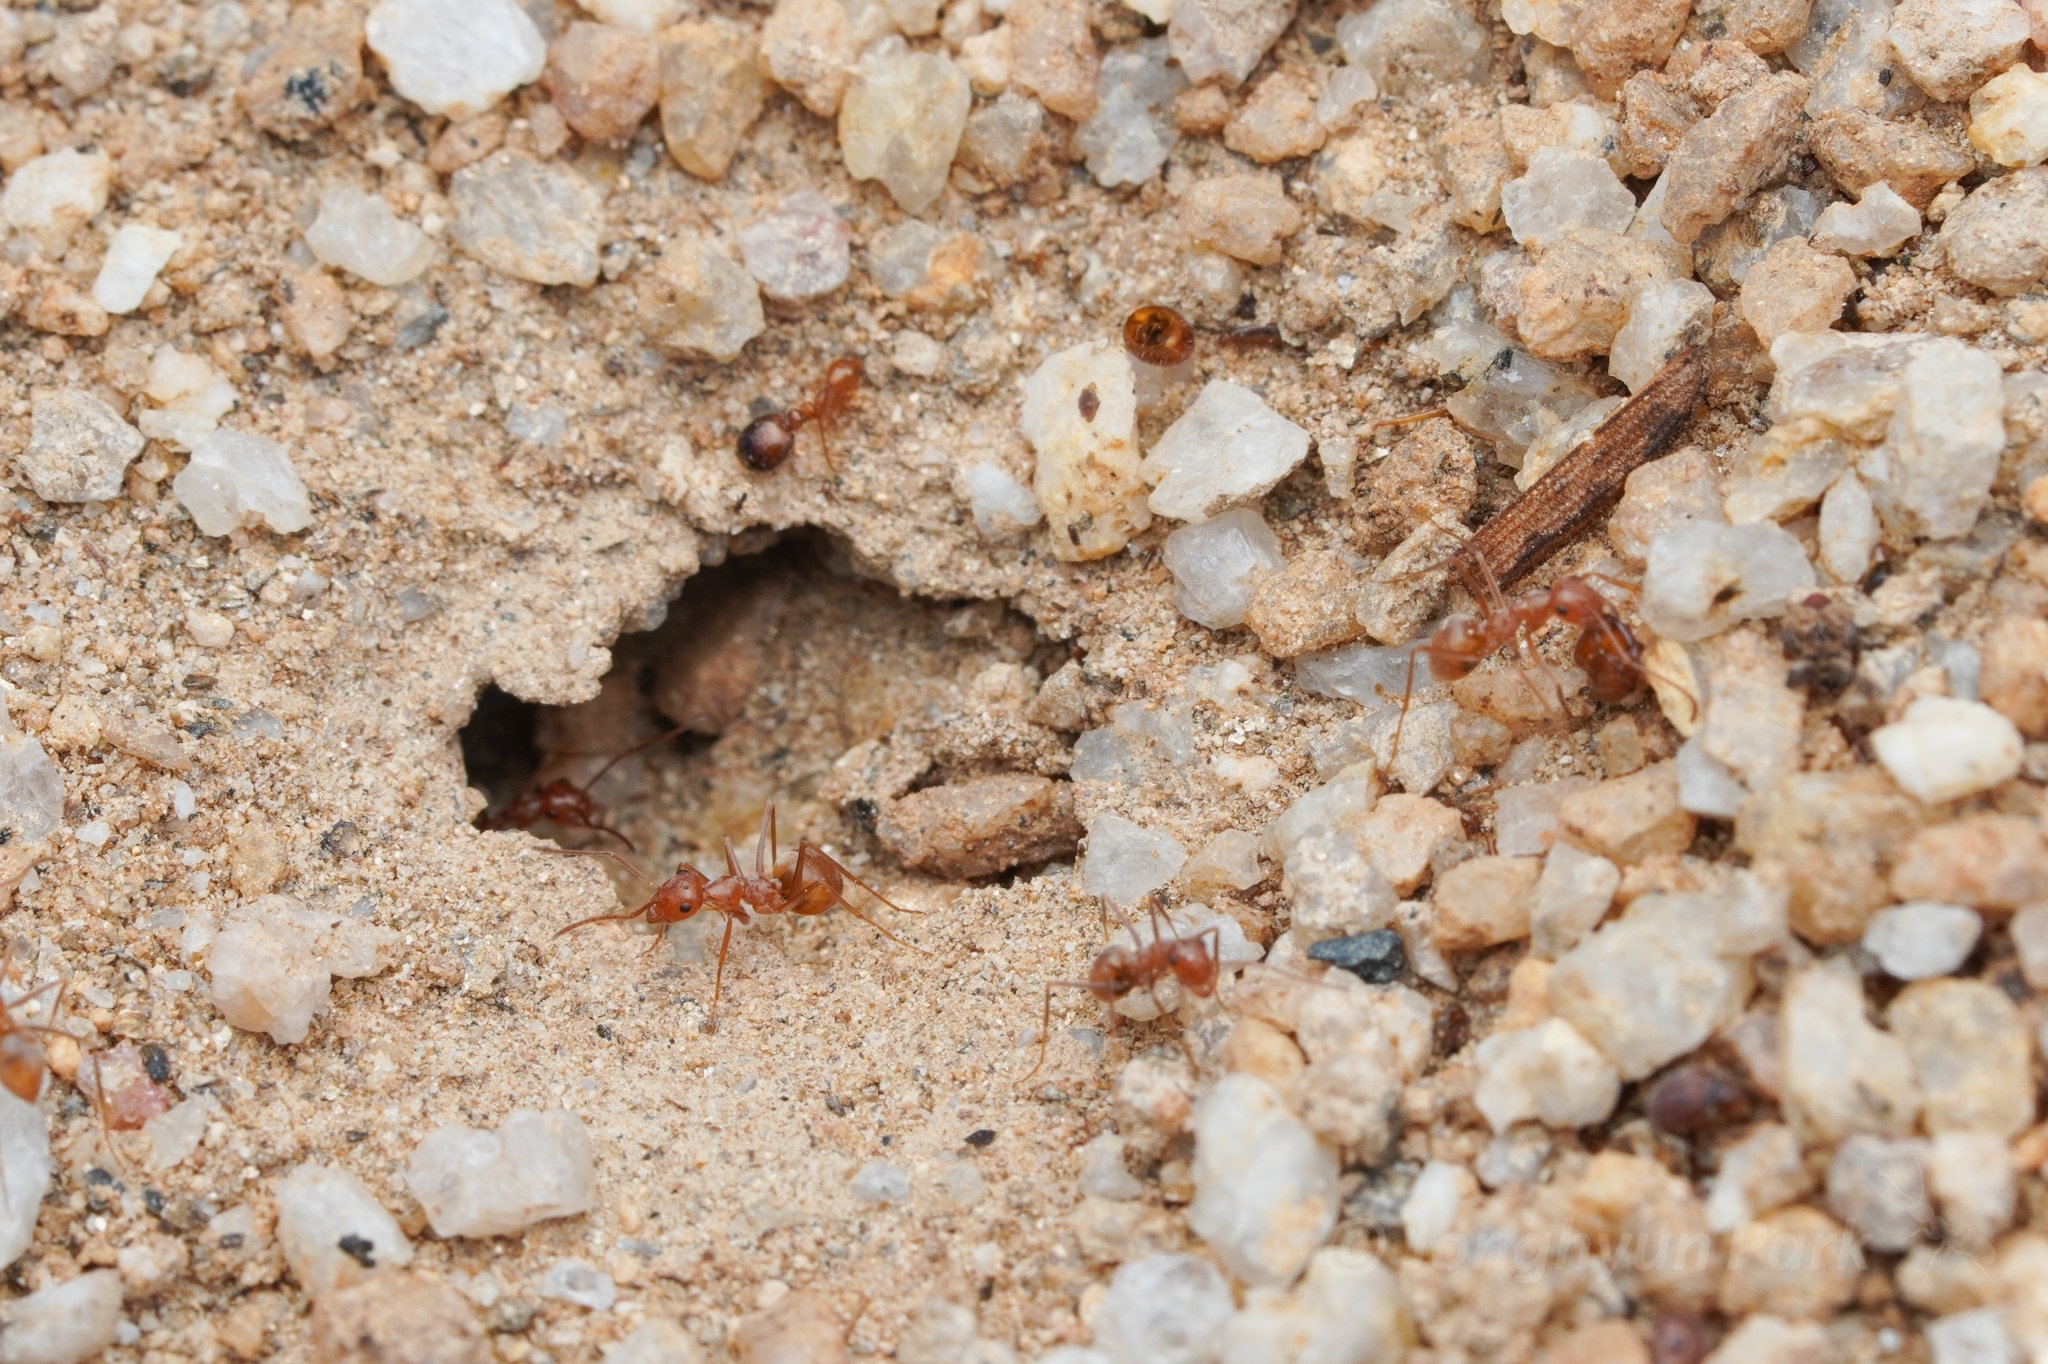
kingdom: Animalia
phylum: Arthropoda
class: Insecta
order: Hymenoptera
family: Formicidae
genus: Myrmecocystus
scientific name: Myrmecocystus wheeleri
